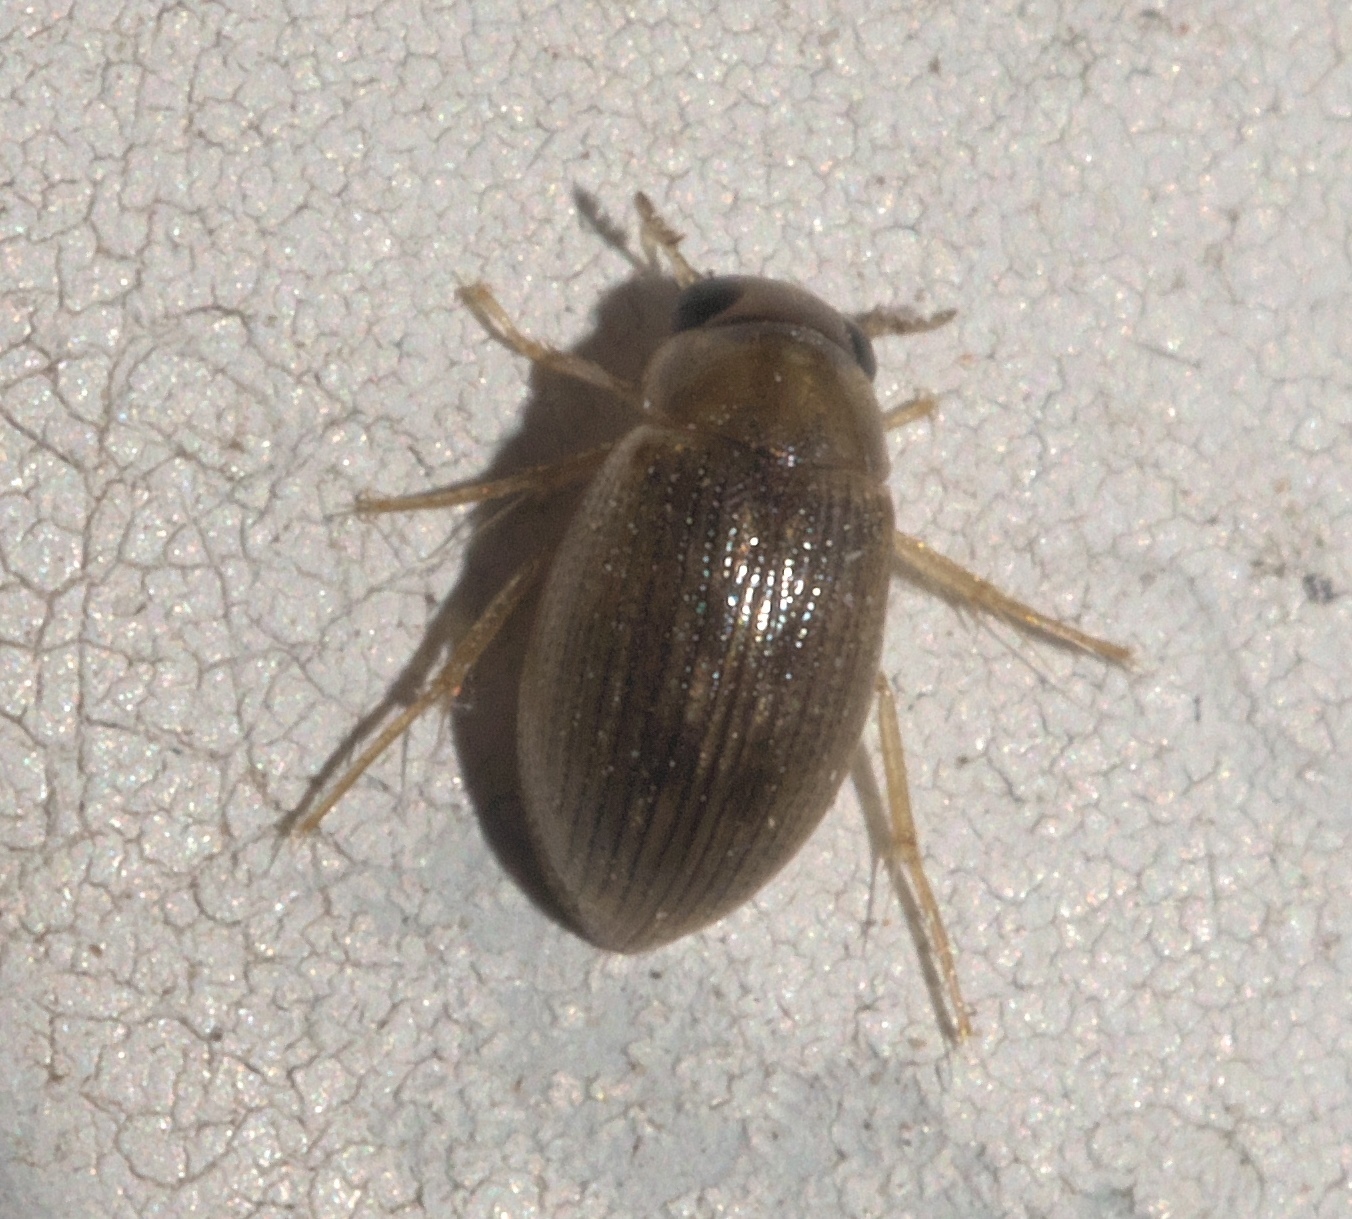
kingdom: Animalia
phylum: Arthropoda
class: Insecta
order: Coleoptera
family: Hydrophilidae
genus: Berosus
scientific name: Berosus exiguus
